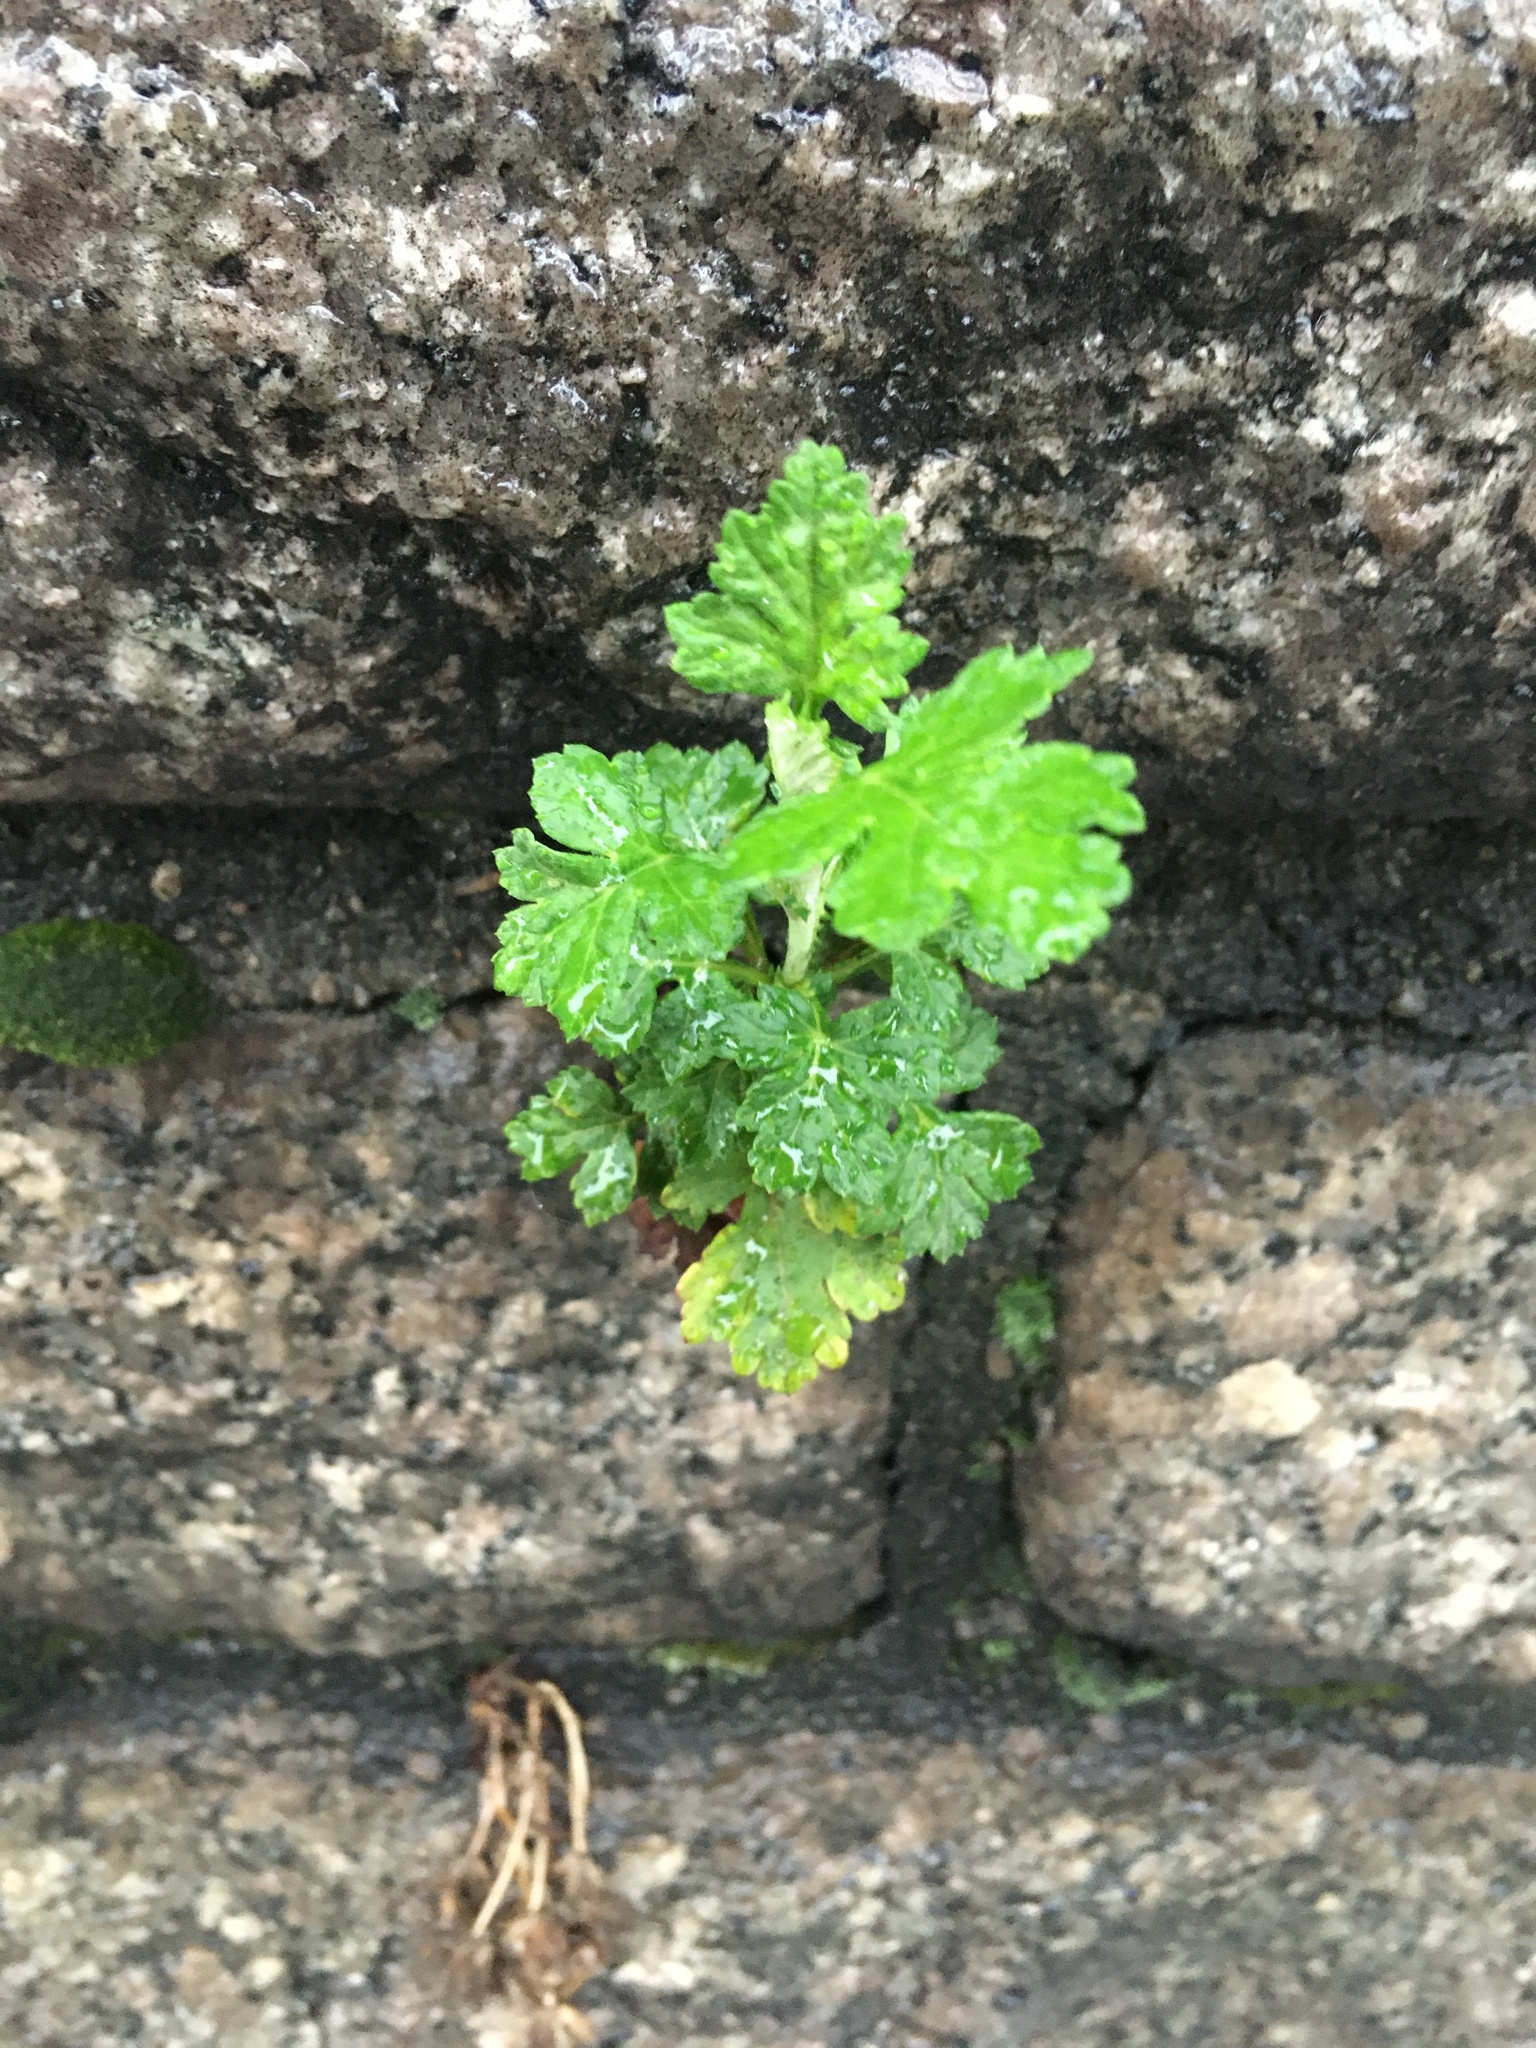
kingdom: Plantae
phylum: Tracheophyta
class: Magnoliopsida
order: Asterales
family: Asteraceae
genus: Artemisia
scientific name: Artemisia vulgaris
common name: Mugwort
